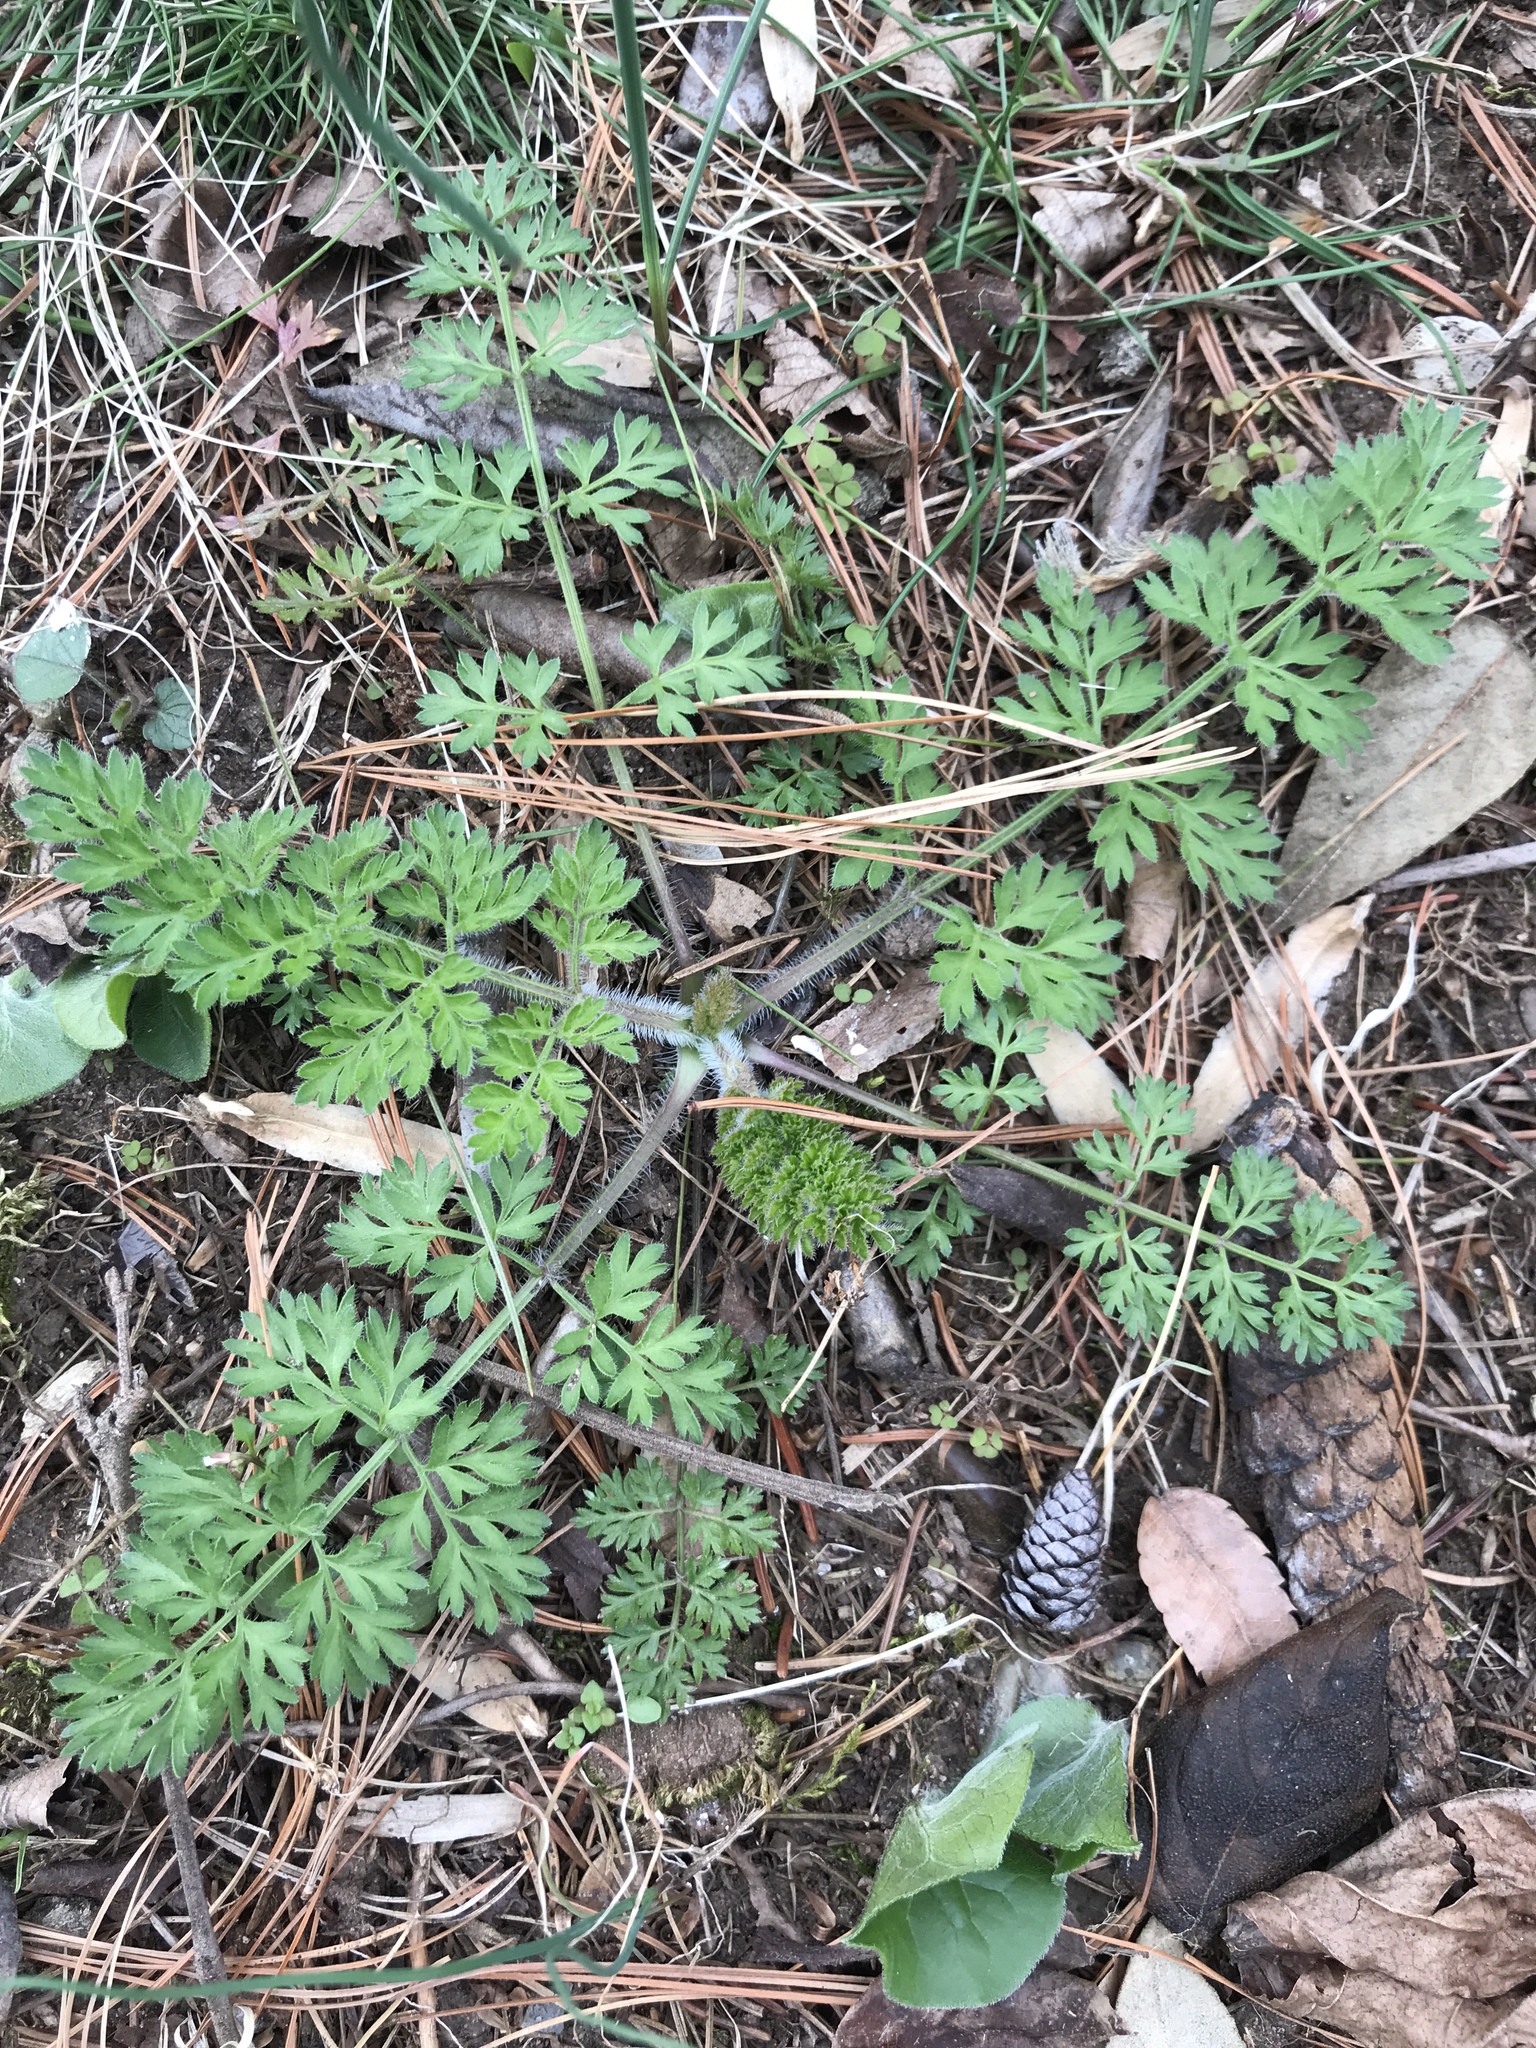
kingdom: Plantae
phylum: Tracheophyta
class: Magnoliopsida
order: Apiales
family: Apiaceae
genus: Daucus
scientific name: Daucus carota
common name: Wild carrot
